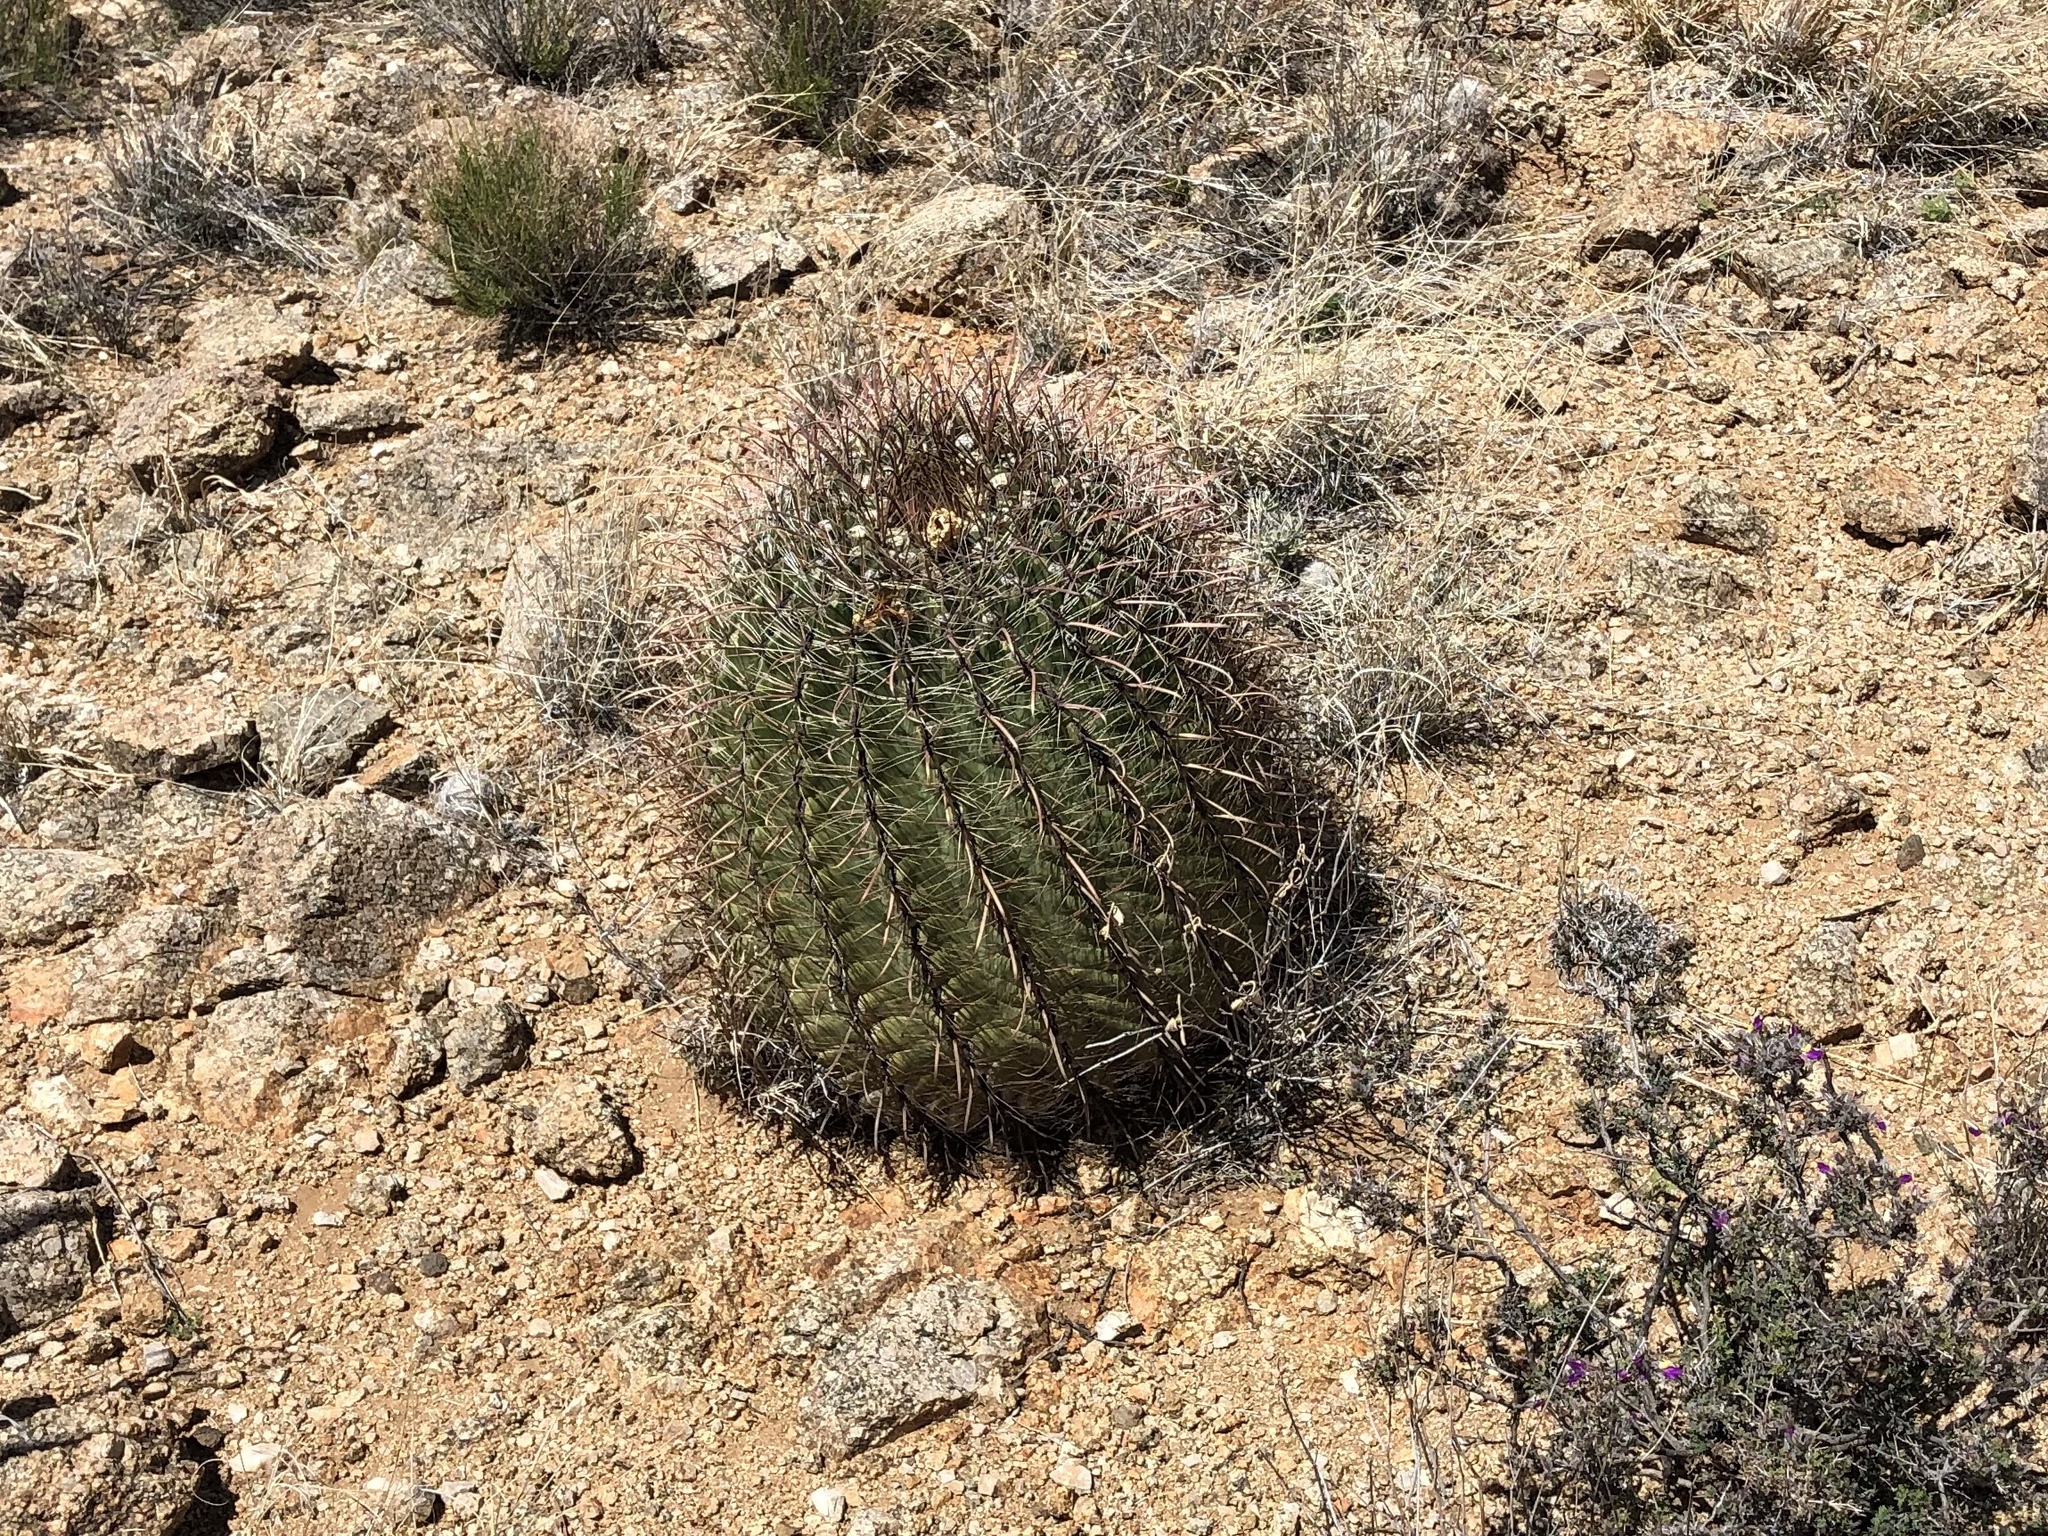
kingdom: Plantae
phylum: Tracheophyta
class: Magnoliopsida
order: Caryophyllales
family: Cactaceae
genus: Ferocactus
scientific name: Ferocactus wislizeni
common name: Candy barrel cactus
